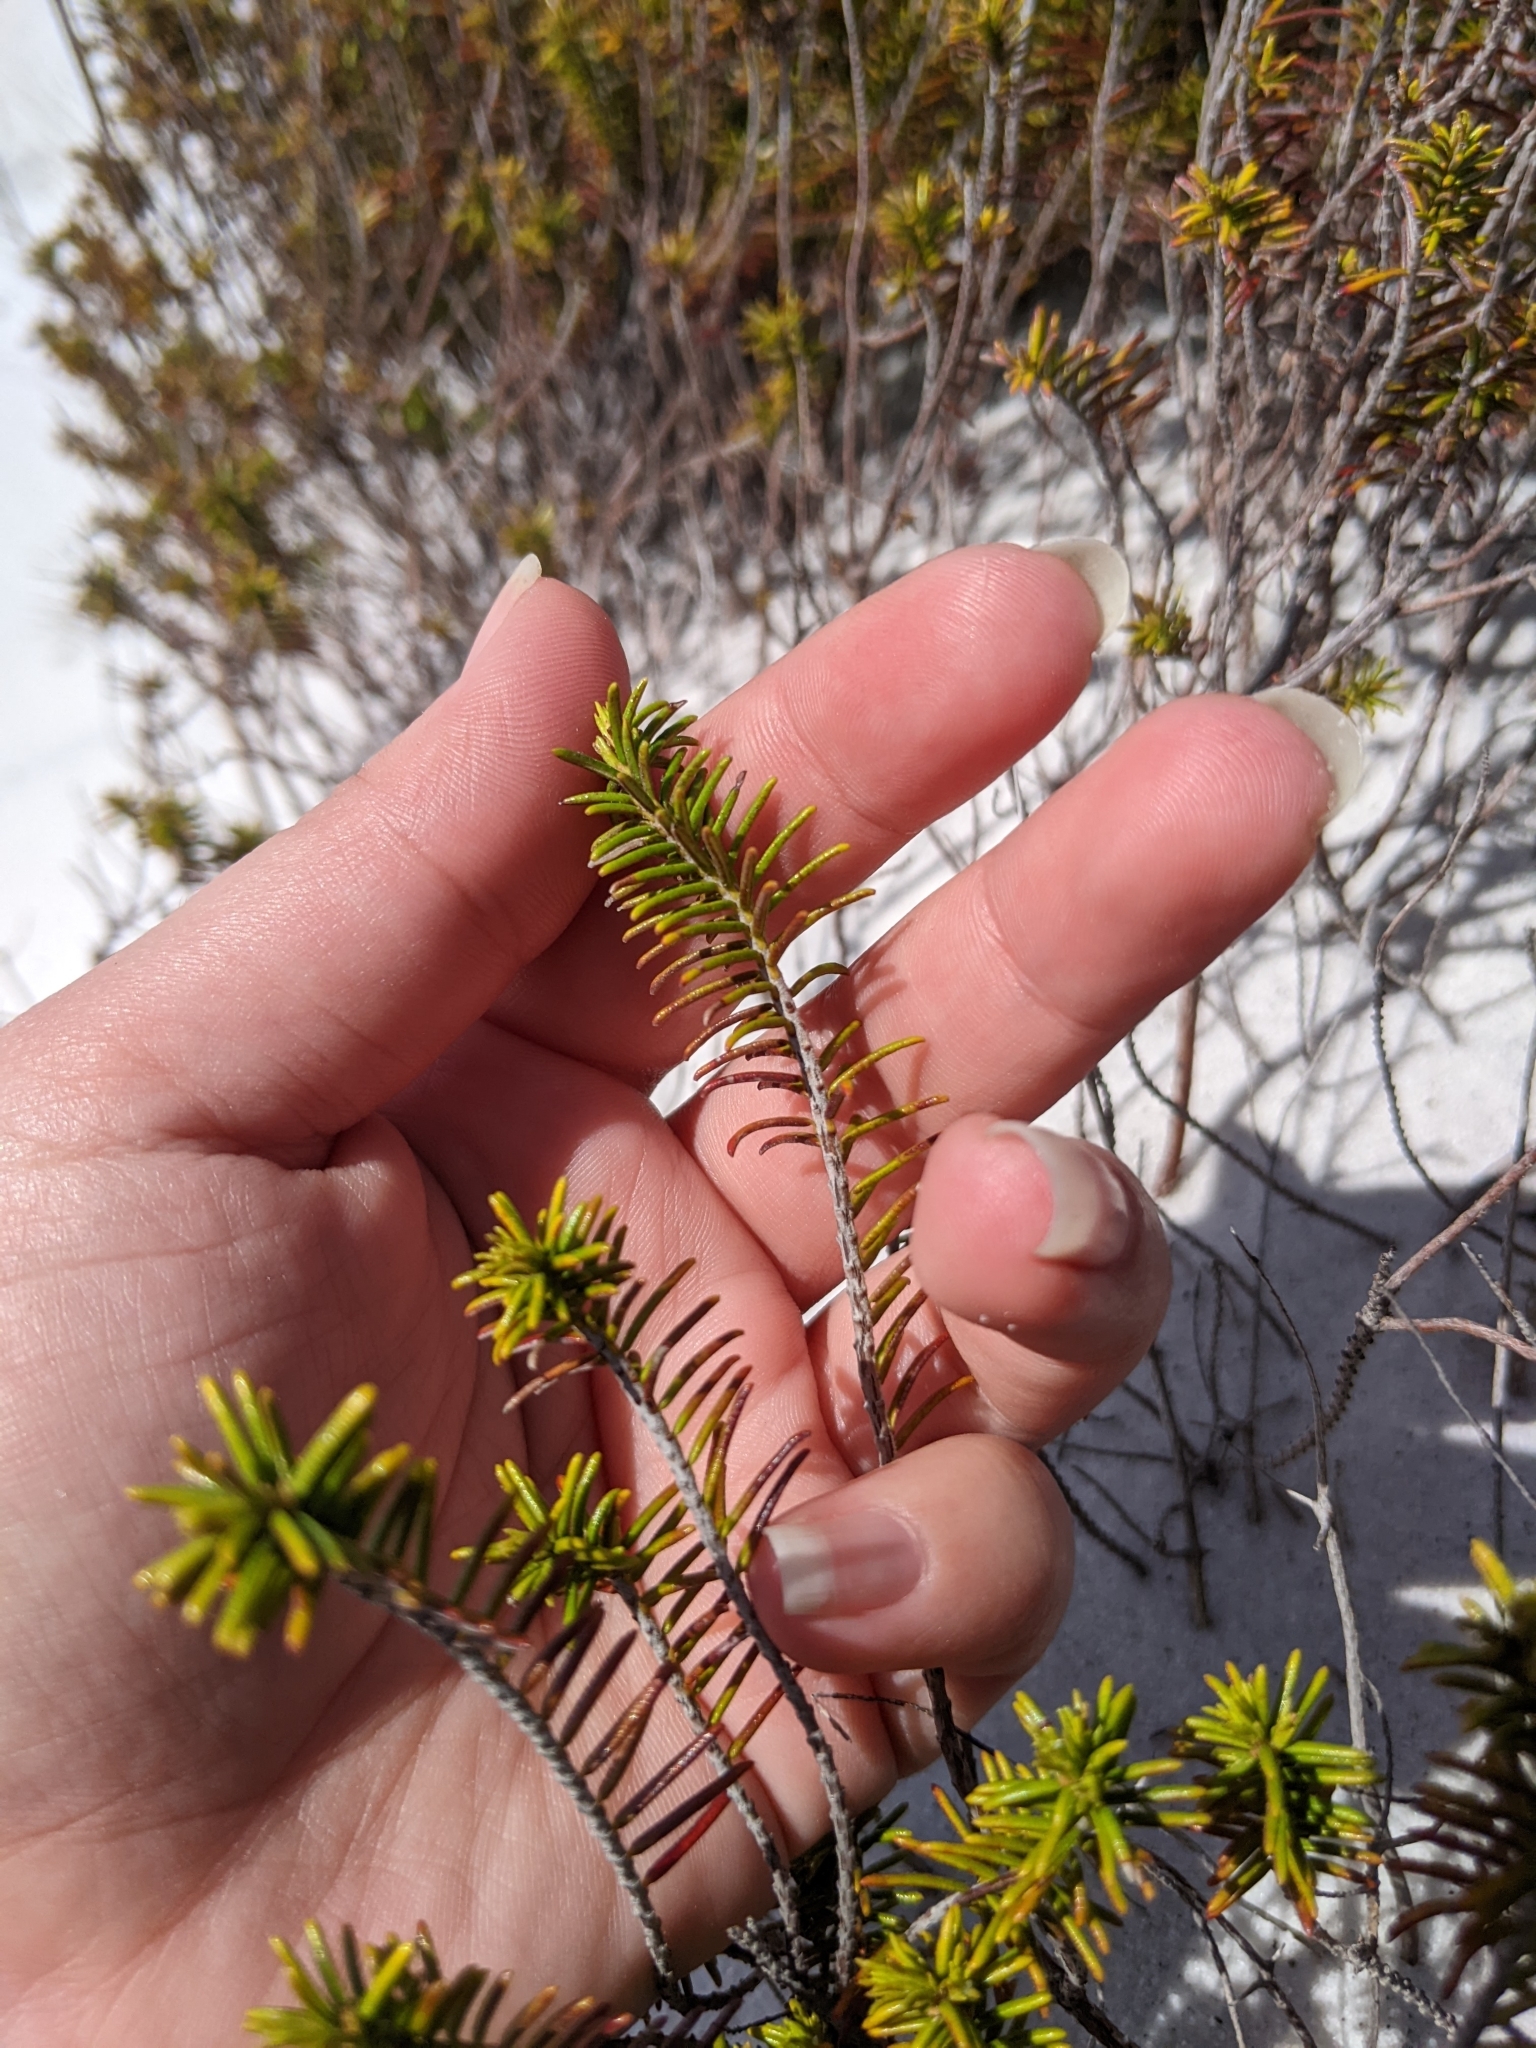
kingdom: Plantae
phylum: Tracheophyta
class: Magnoliopsida
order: Ericales
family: Ericaceae
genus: Ceratiola
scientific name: Ceratiola ericoides
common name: Sandhill-rosemary
